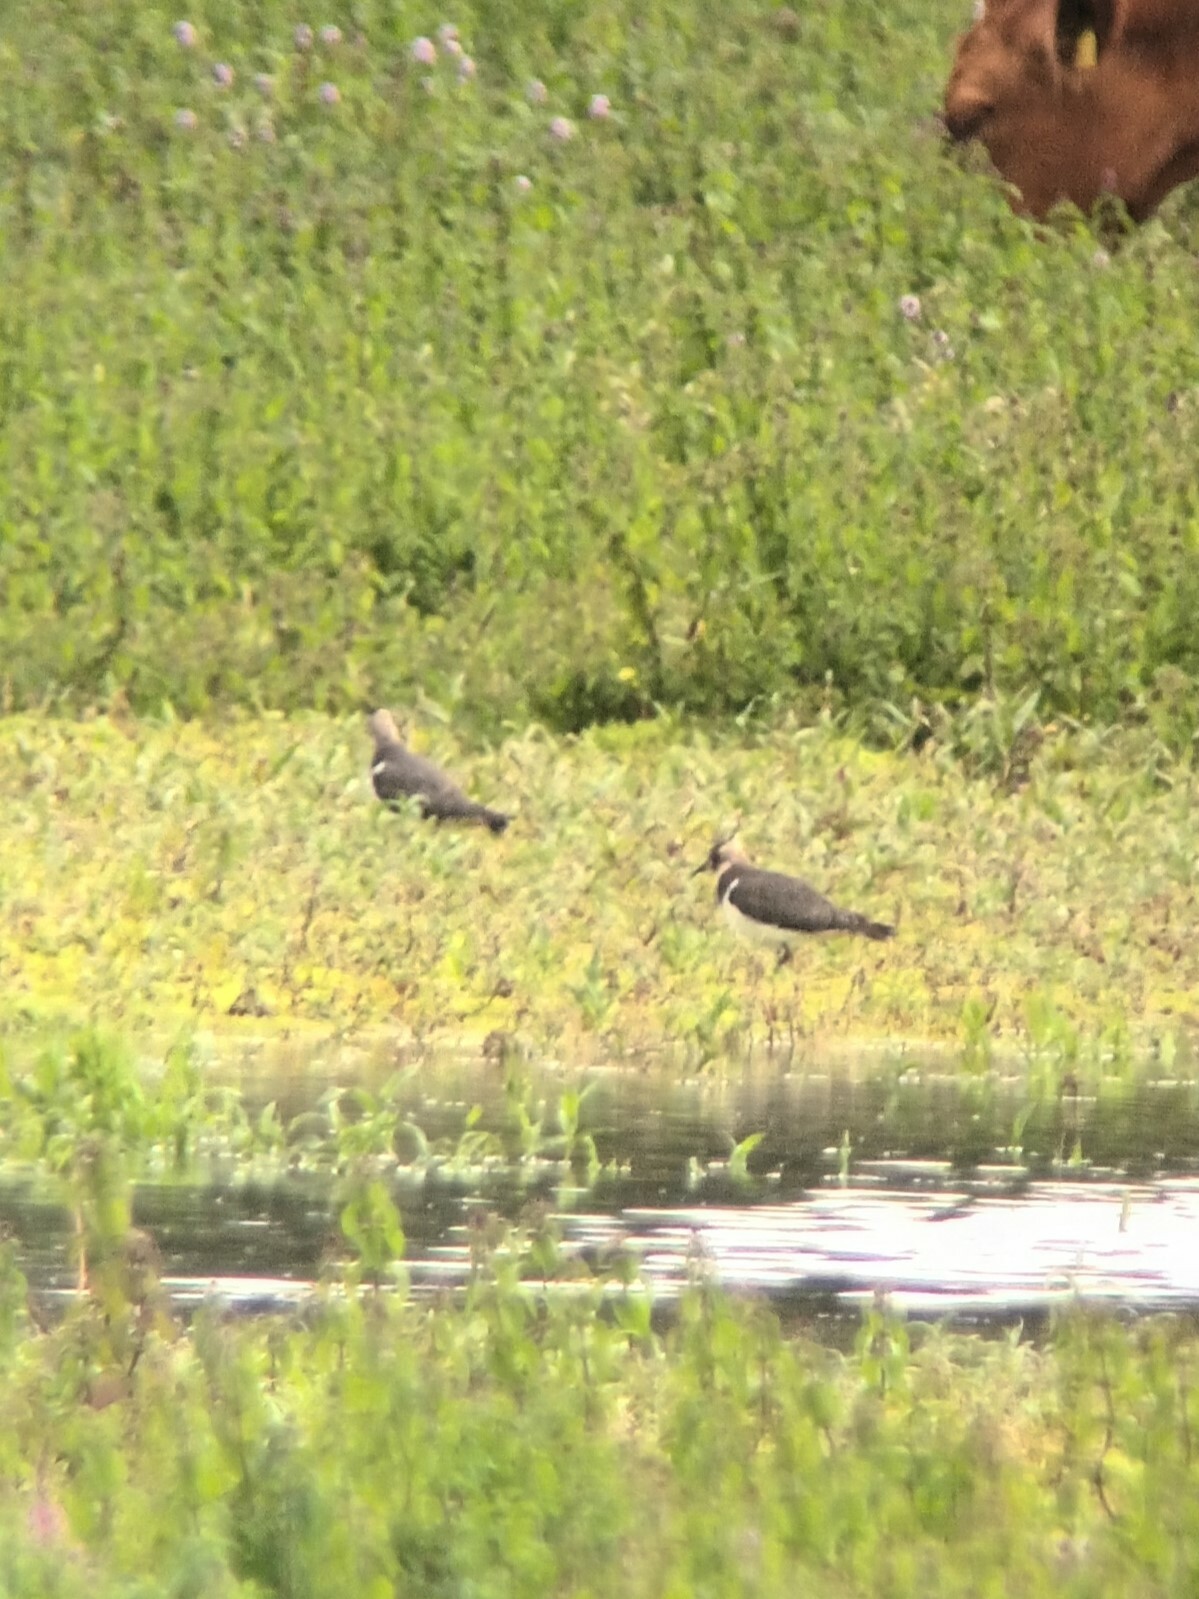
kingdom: Animalia
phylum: Chordata
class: Aves
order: Charadriiformes
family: Charadriidae
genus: Vanellus
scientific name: Vanellus vanellus
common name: Northern lapwing
